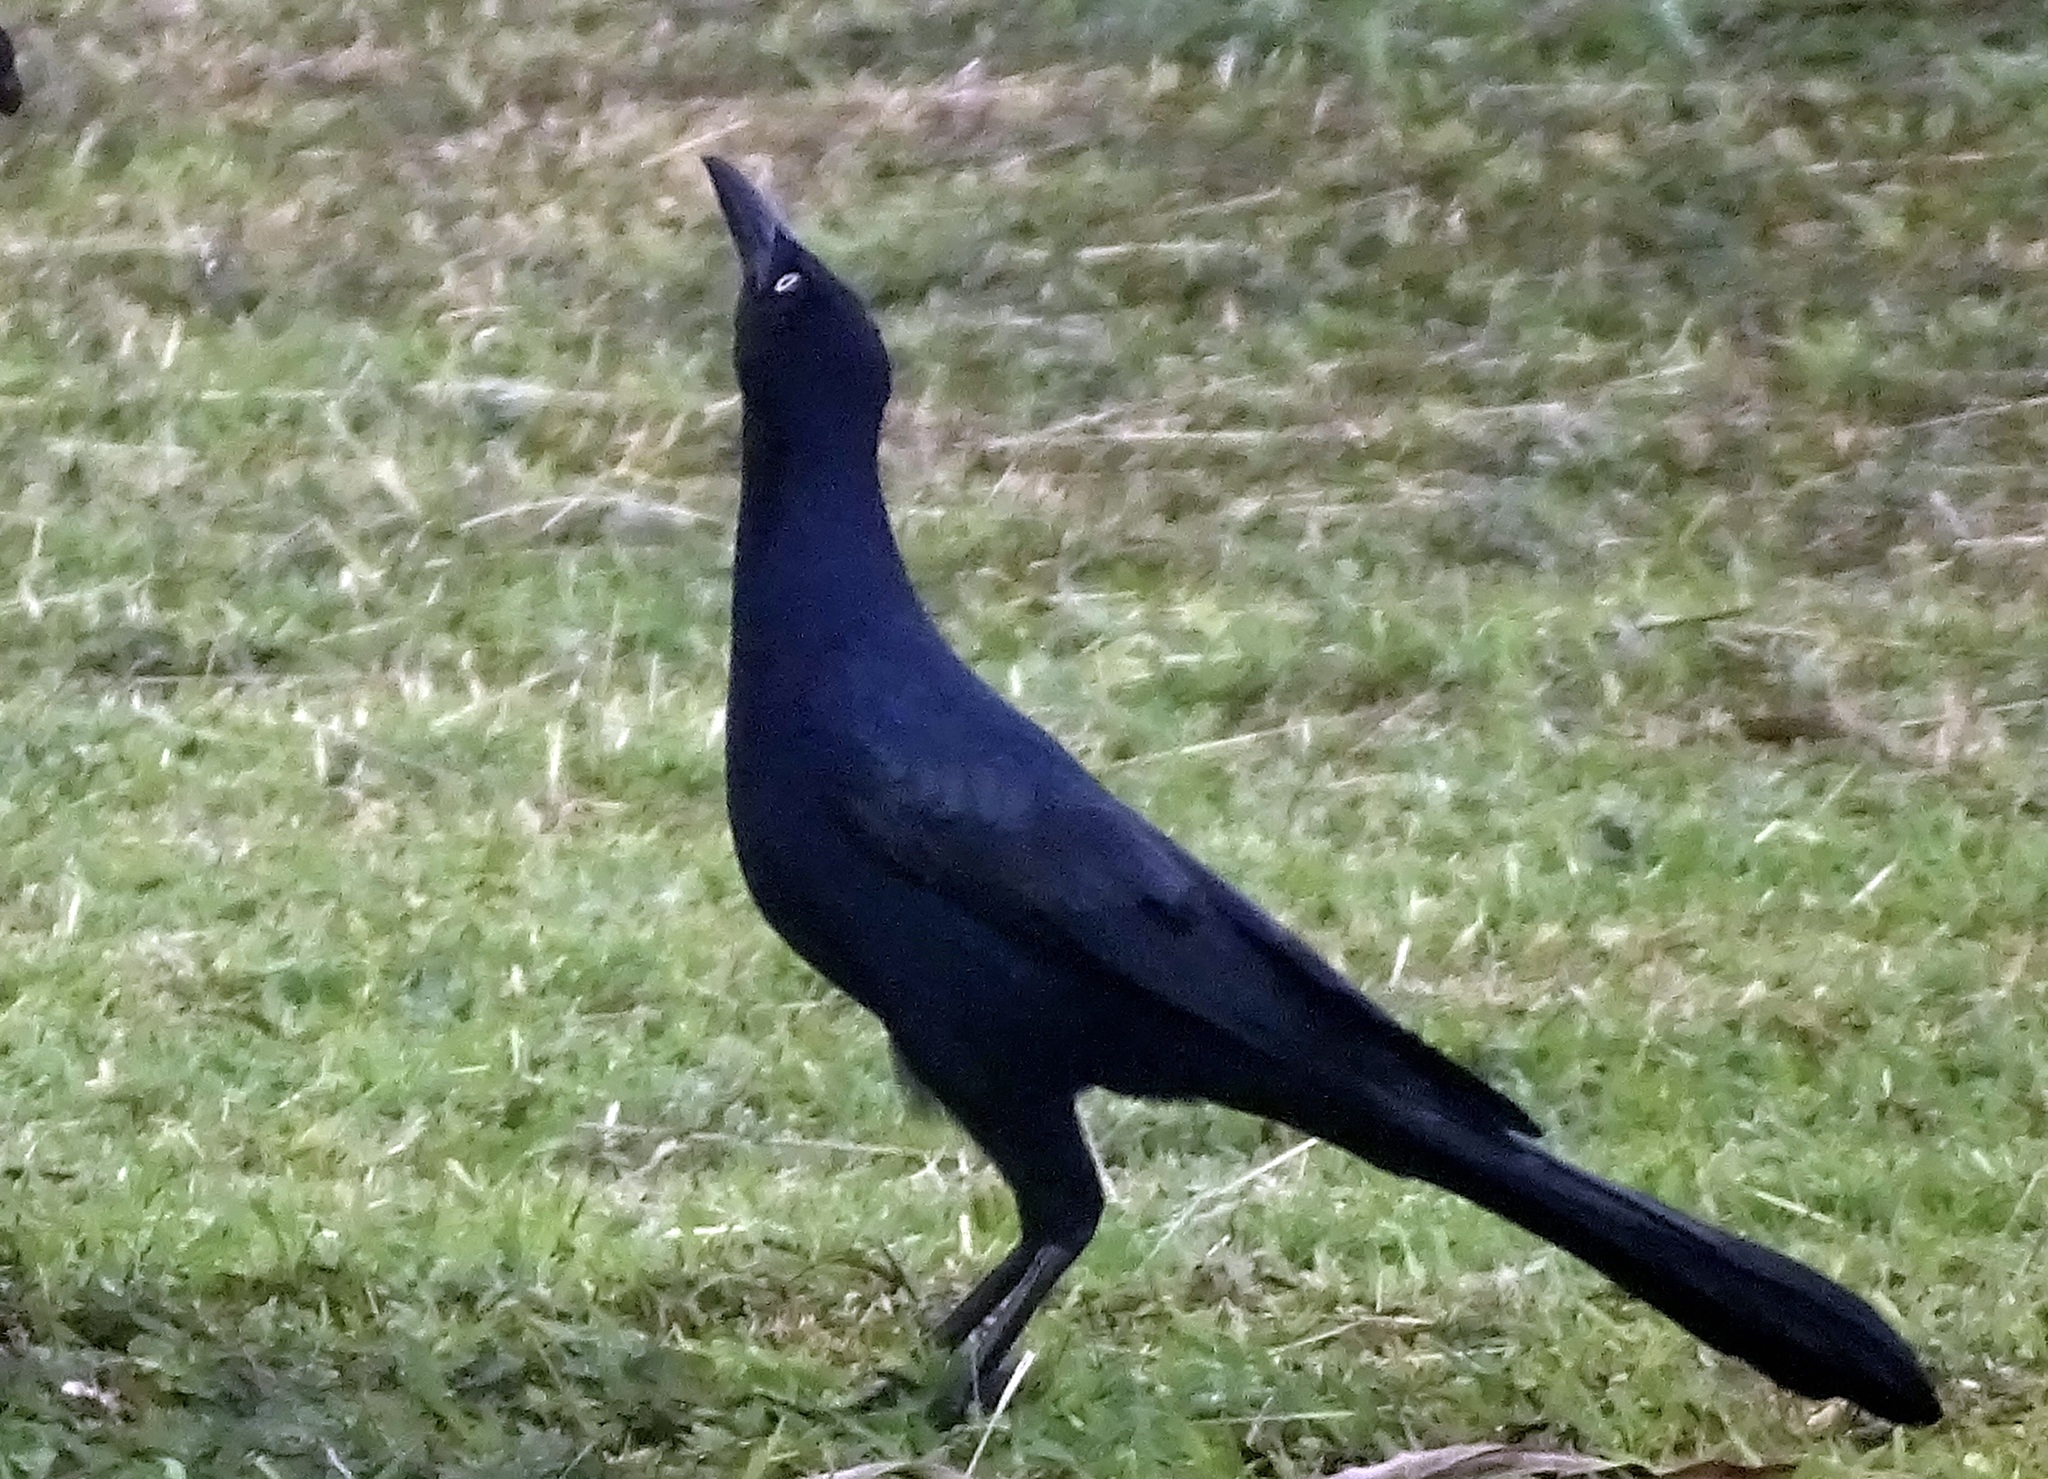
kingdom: Animalia
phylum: Chordata
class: Aves
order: Passeriformes
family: Icteridae
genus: Quiscalus
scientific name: Quiscalus mexicanus
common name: Great-tailed grackle
